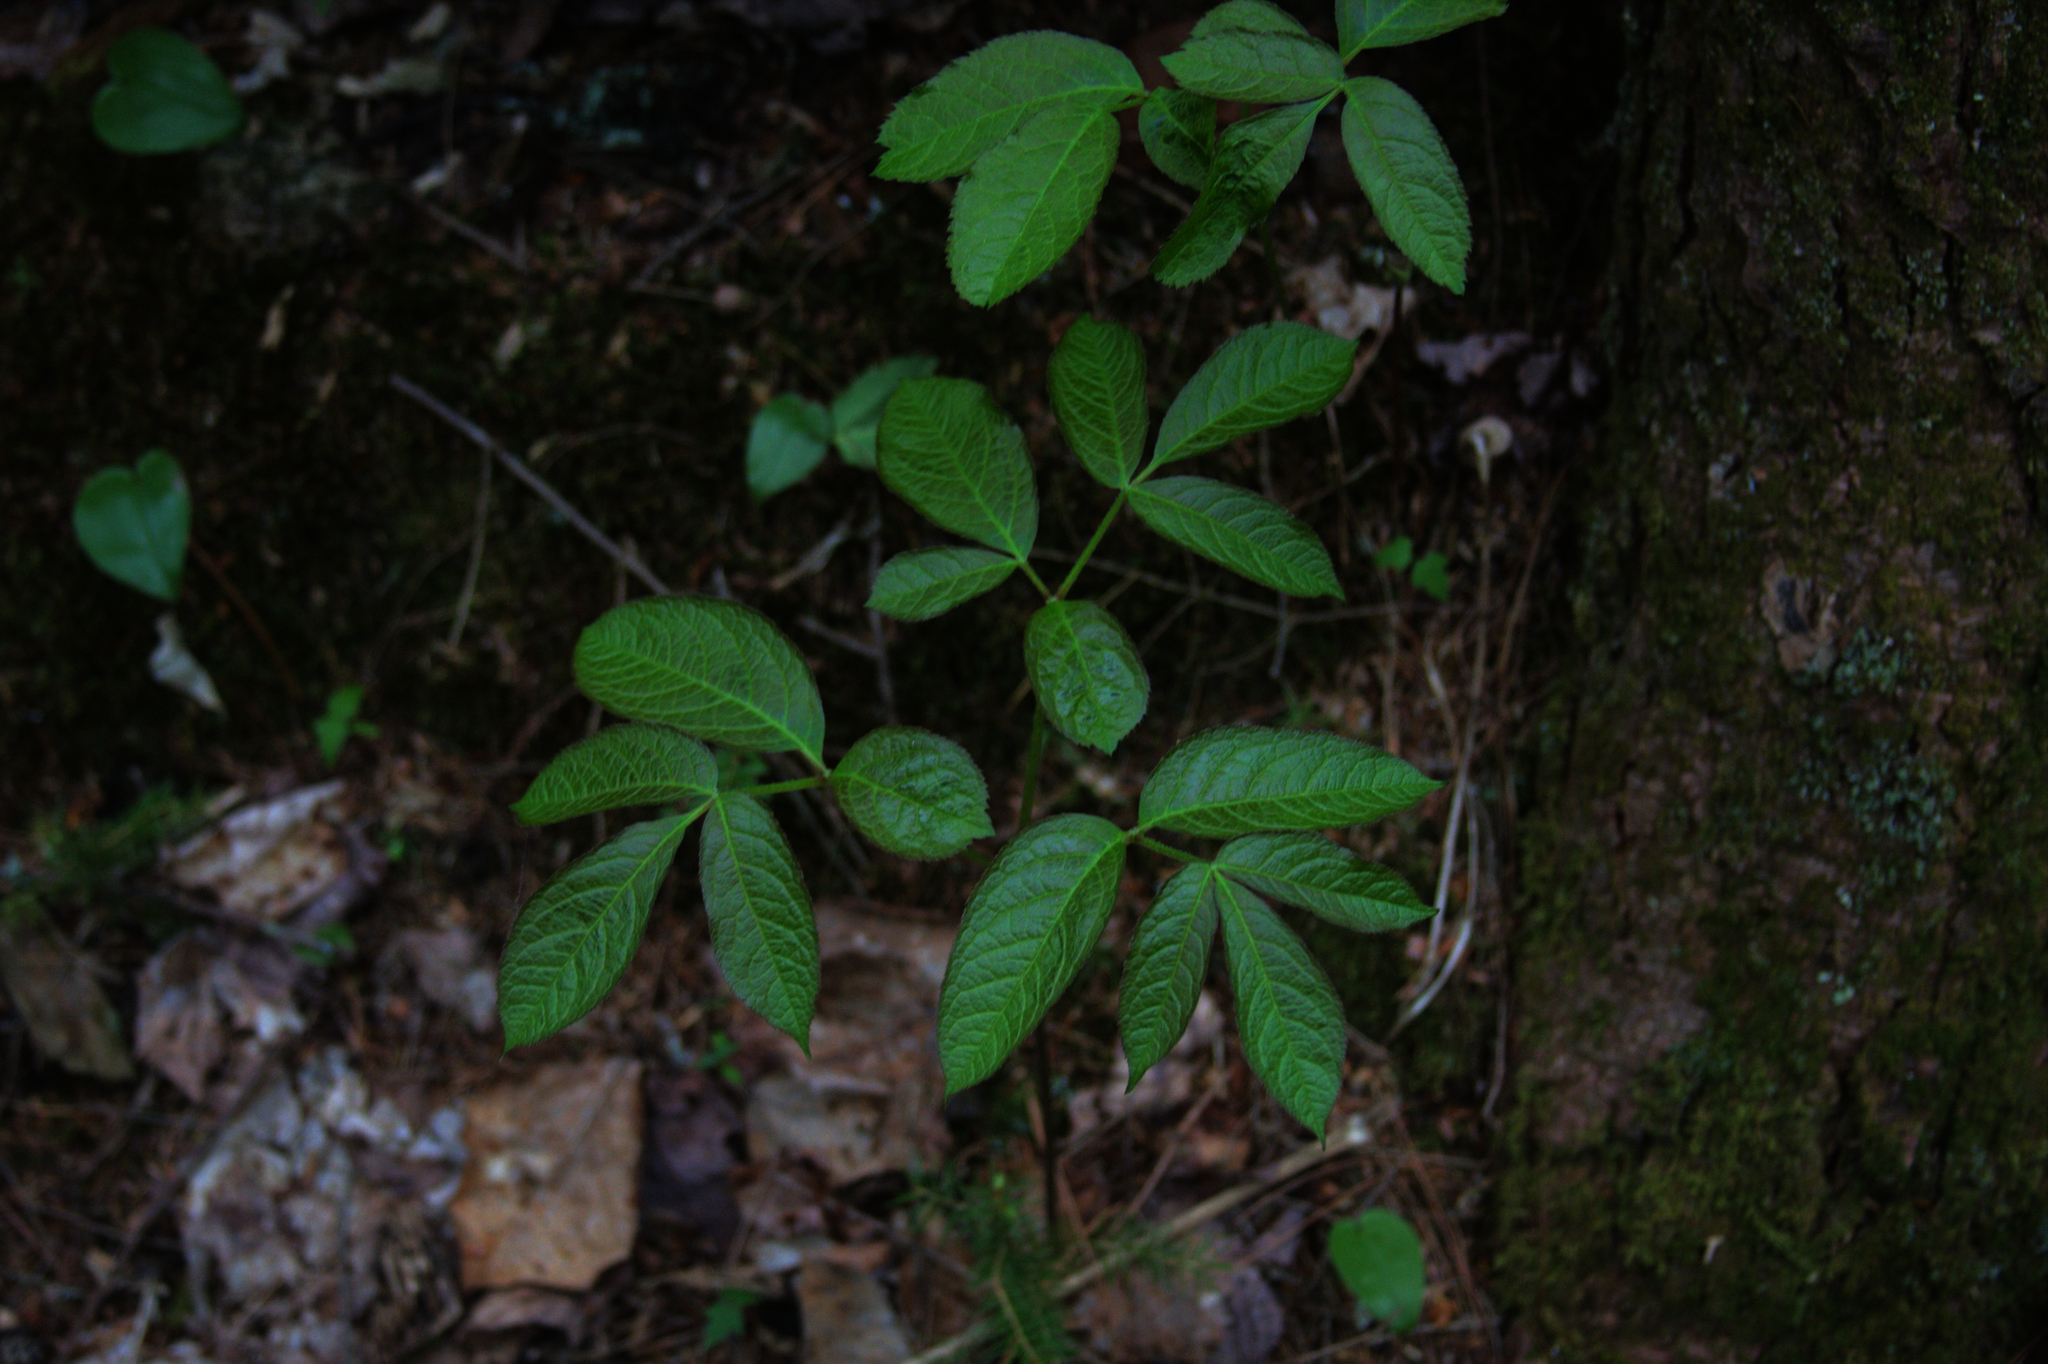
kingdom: Plantae
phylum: Tracheophyta
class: Magnoliopsida
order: Apiales
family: Araliaceae
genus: Aralia
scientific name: Aralia nudicaulis
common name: Wild sarsaparilla
